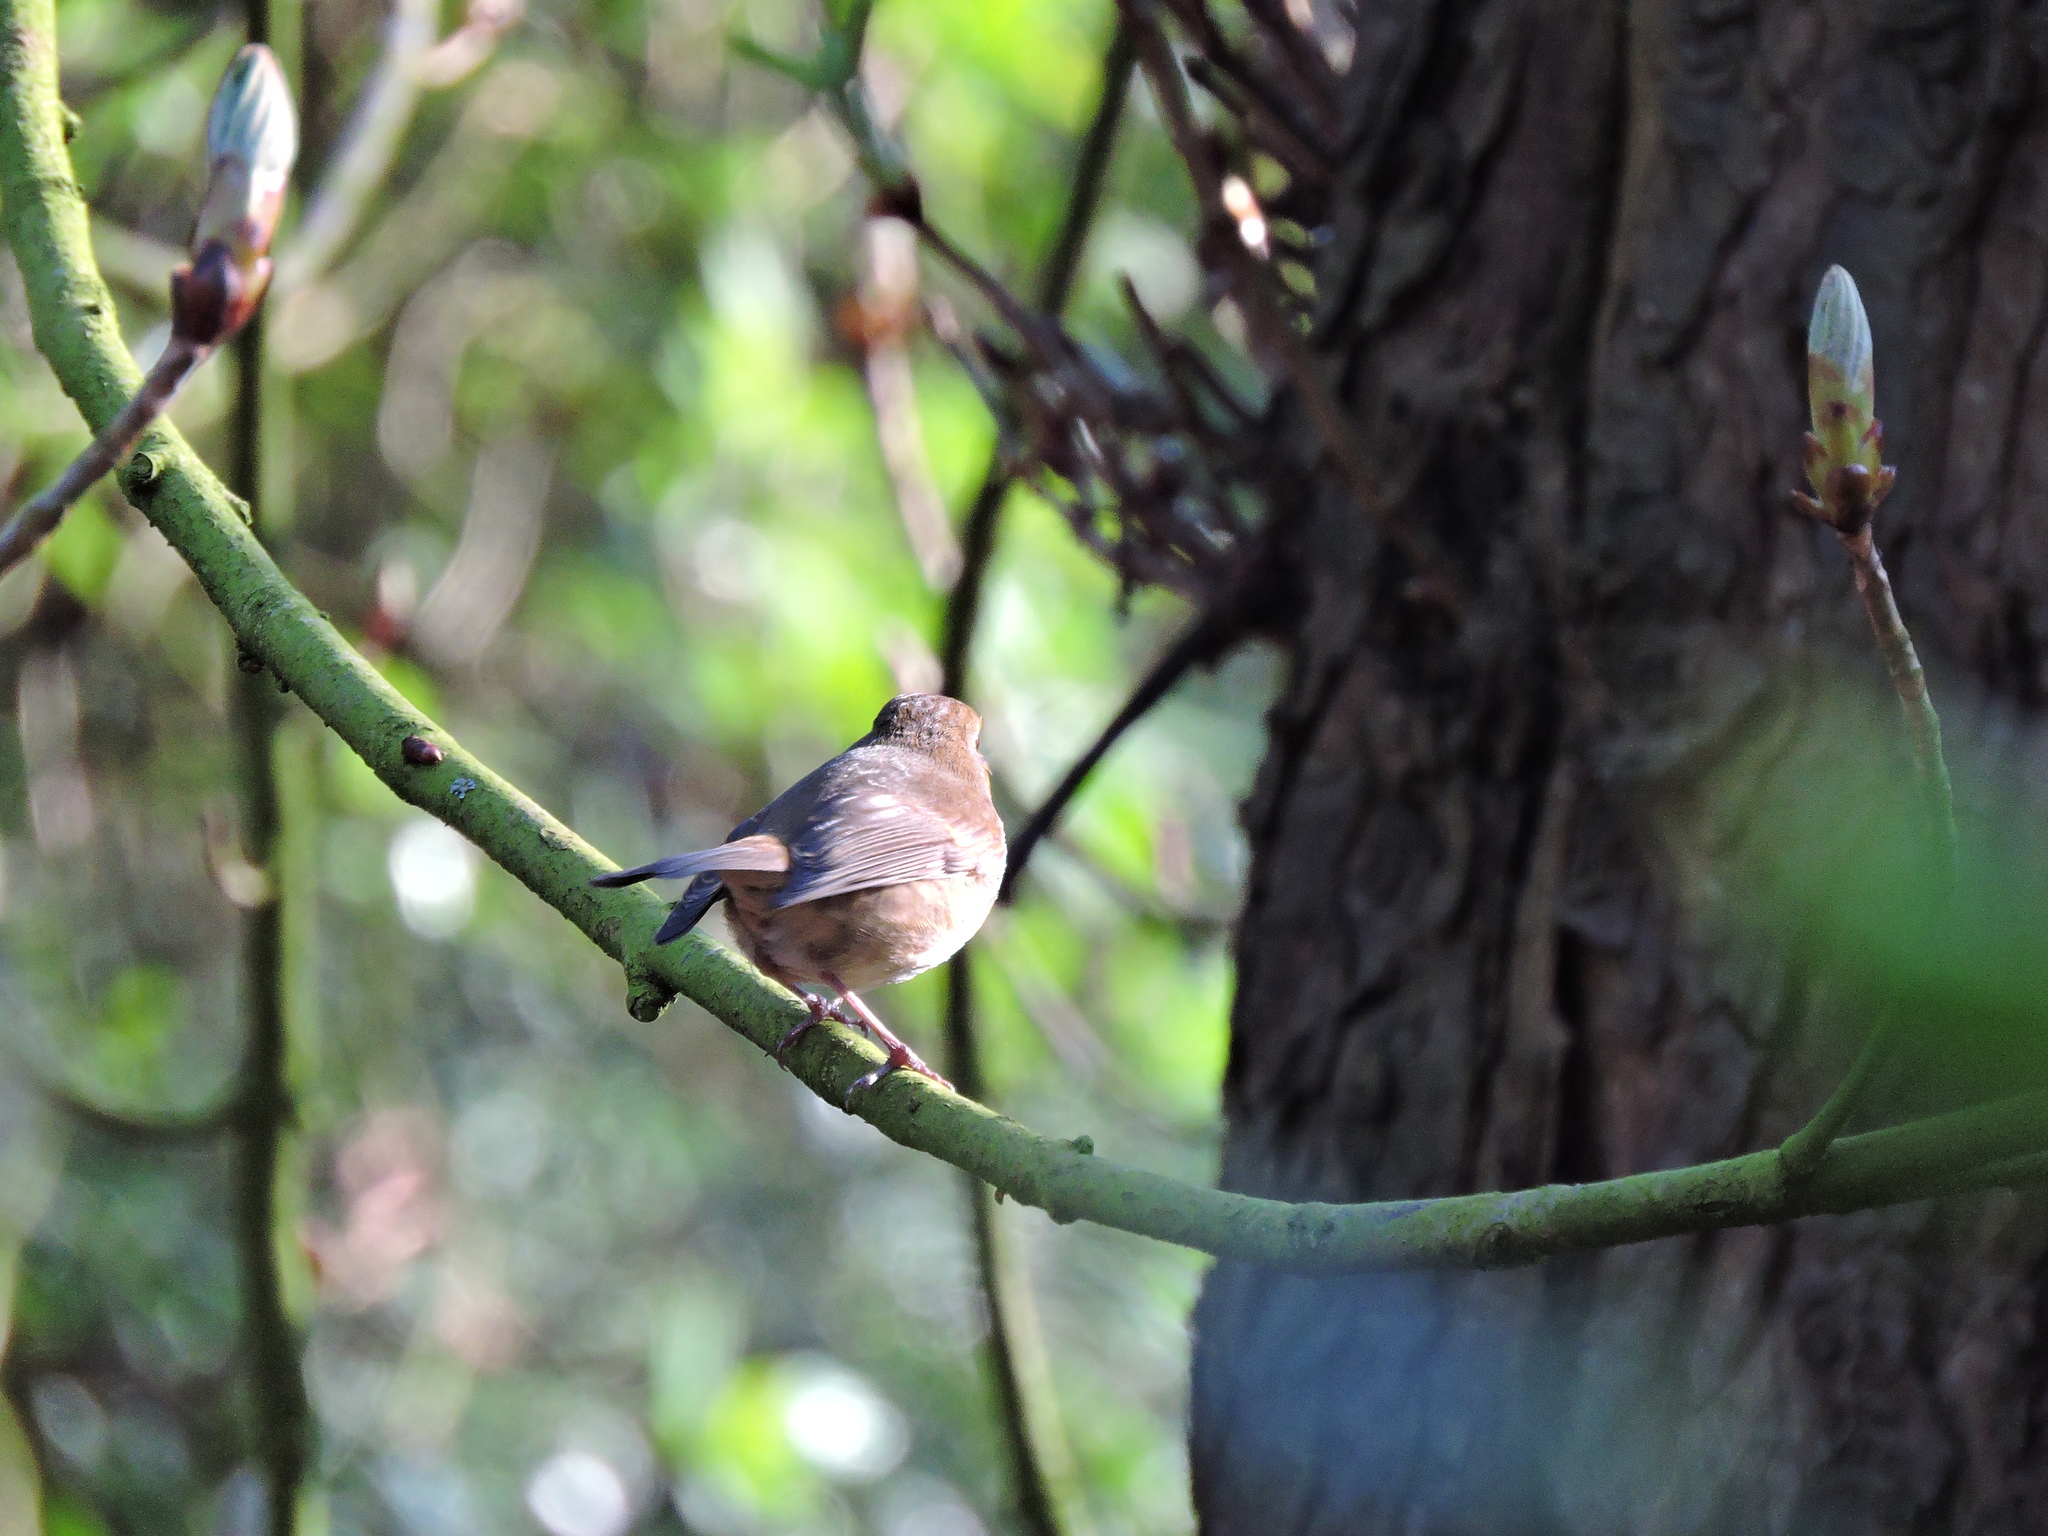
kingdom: Animalia
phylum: Chordata
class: Aves
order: Passeriformes
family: Muscicapidae
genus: Erithacus
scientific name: Erithacus rubecula
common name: European robin
